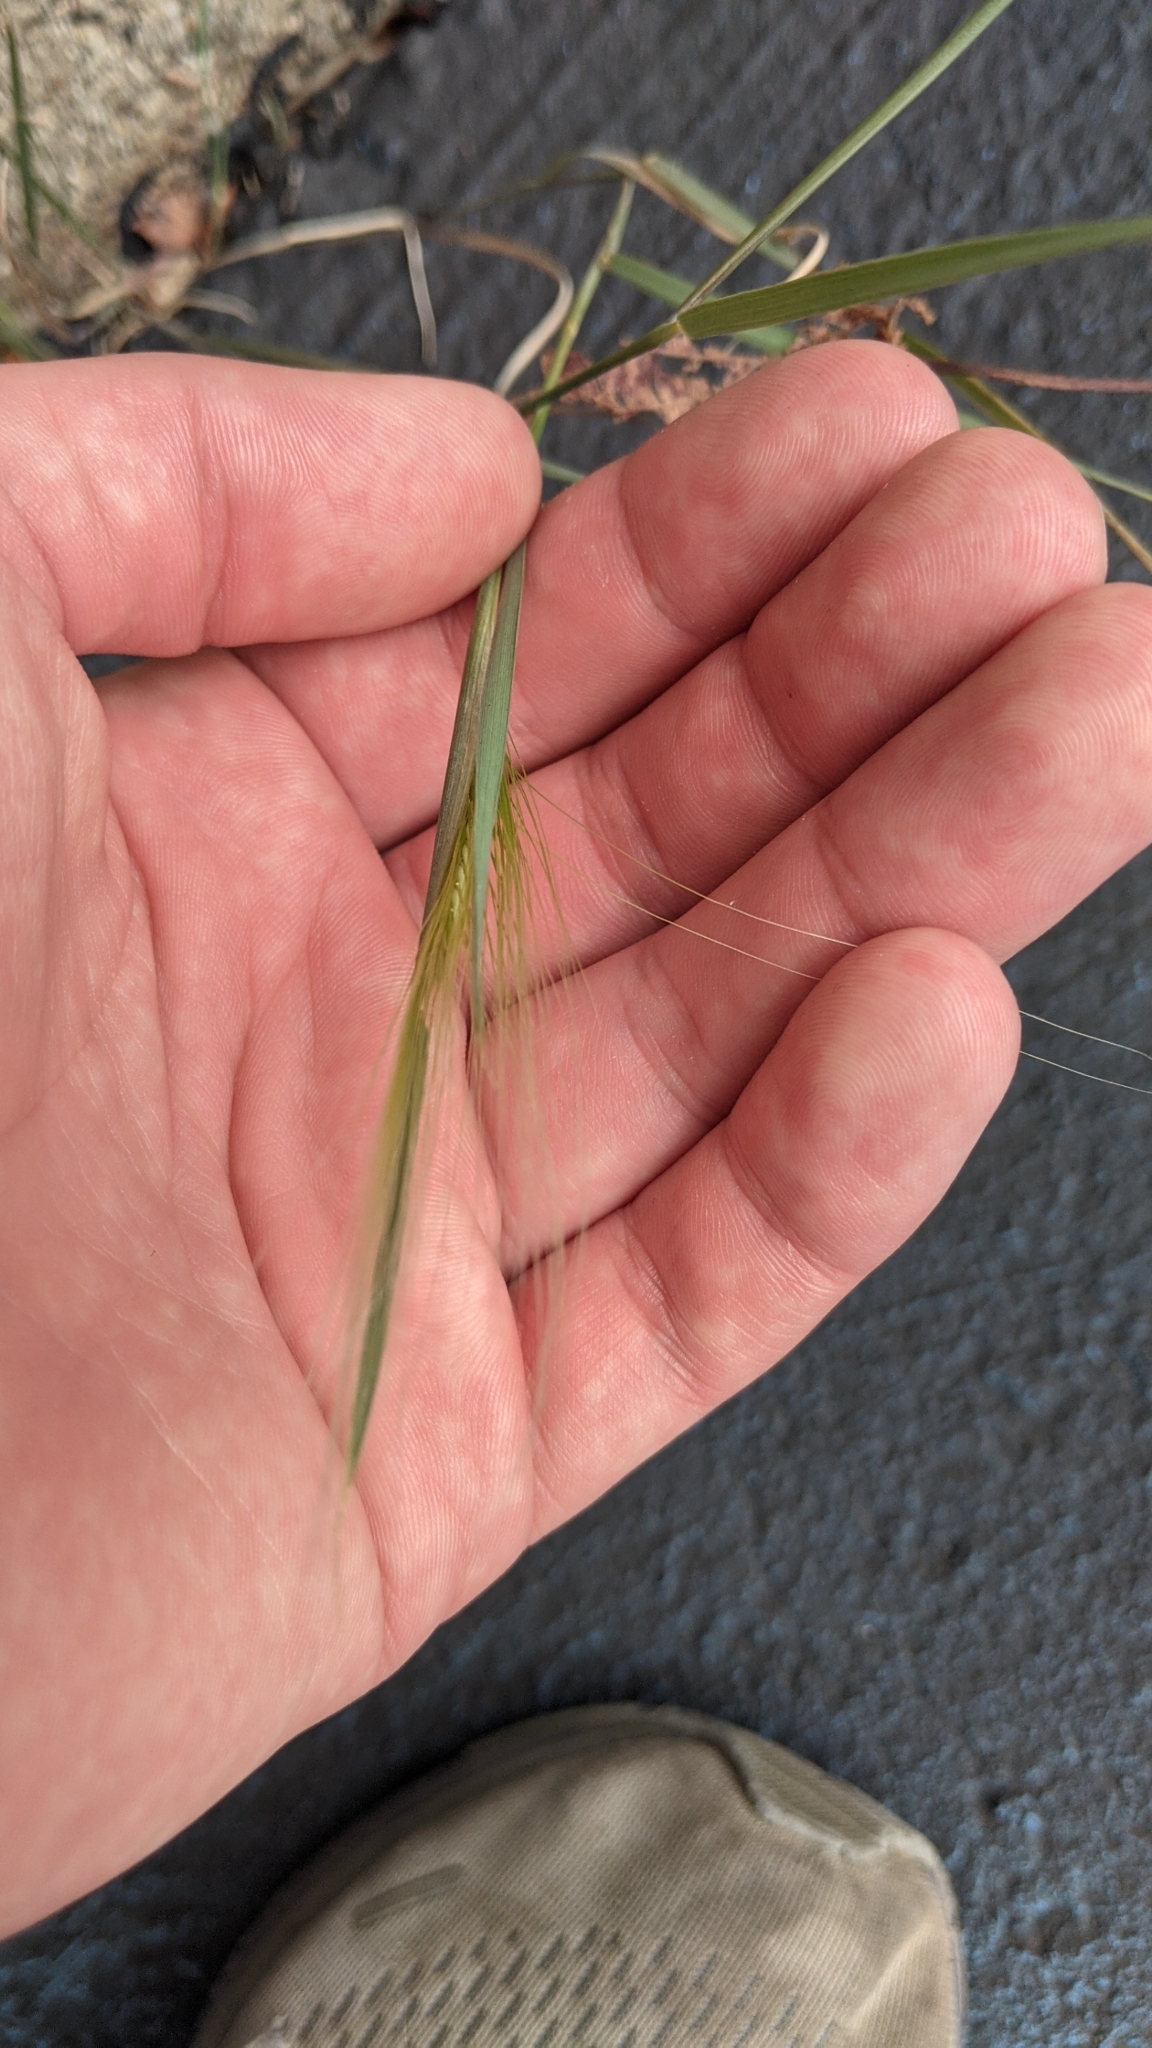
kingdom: Plantae
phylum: Tracheophyta
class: Liliopsida
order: Poales
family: Poaceae
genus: Hordeum
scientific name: Hordeum jubatum
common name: Foxtail barley
